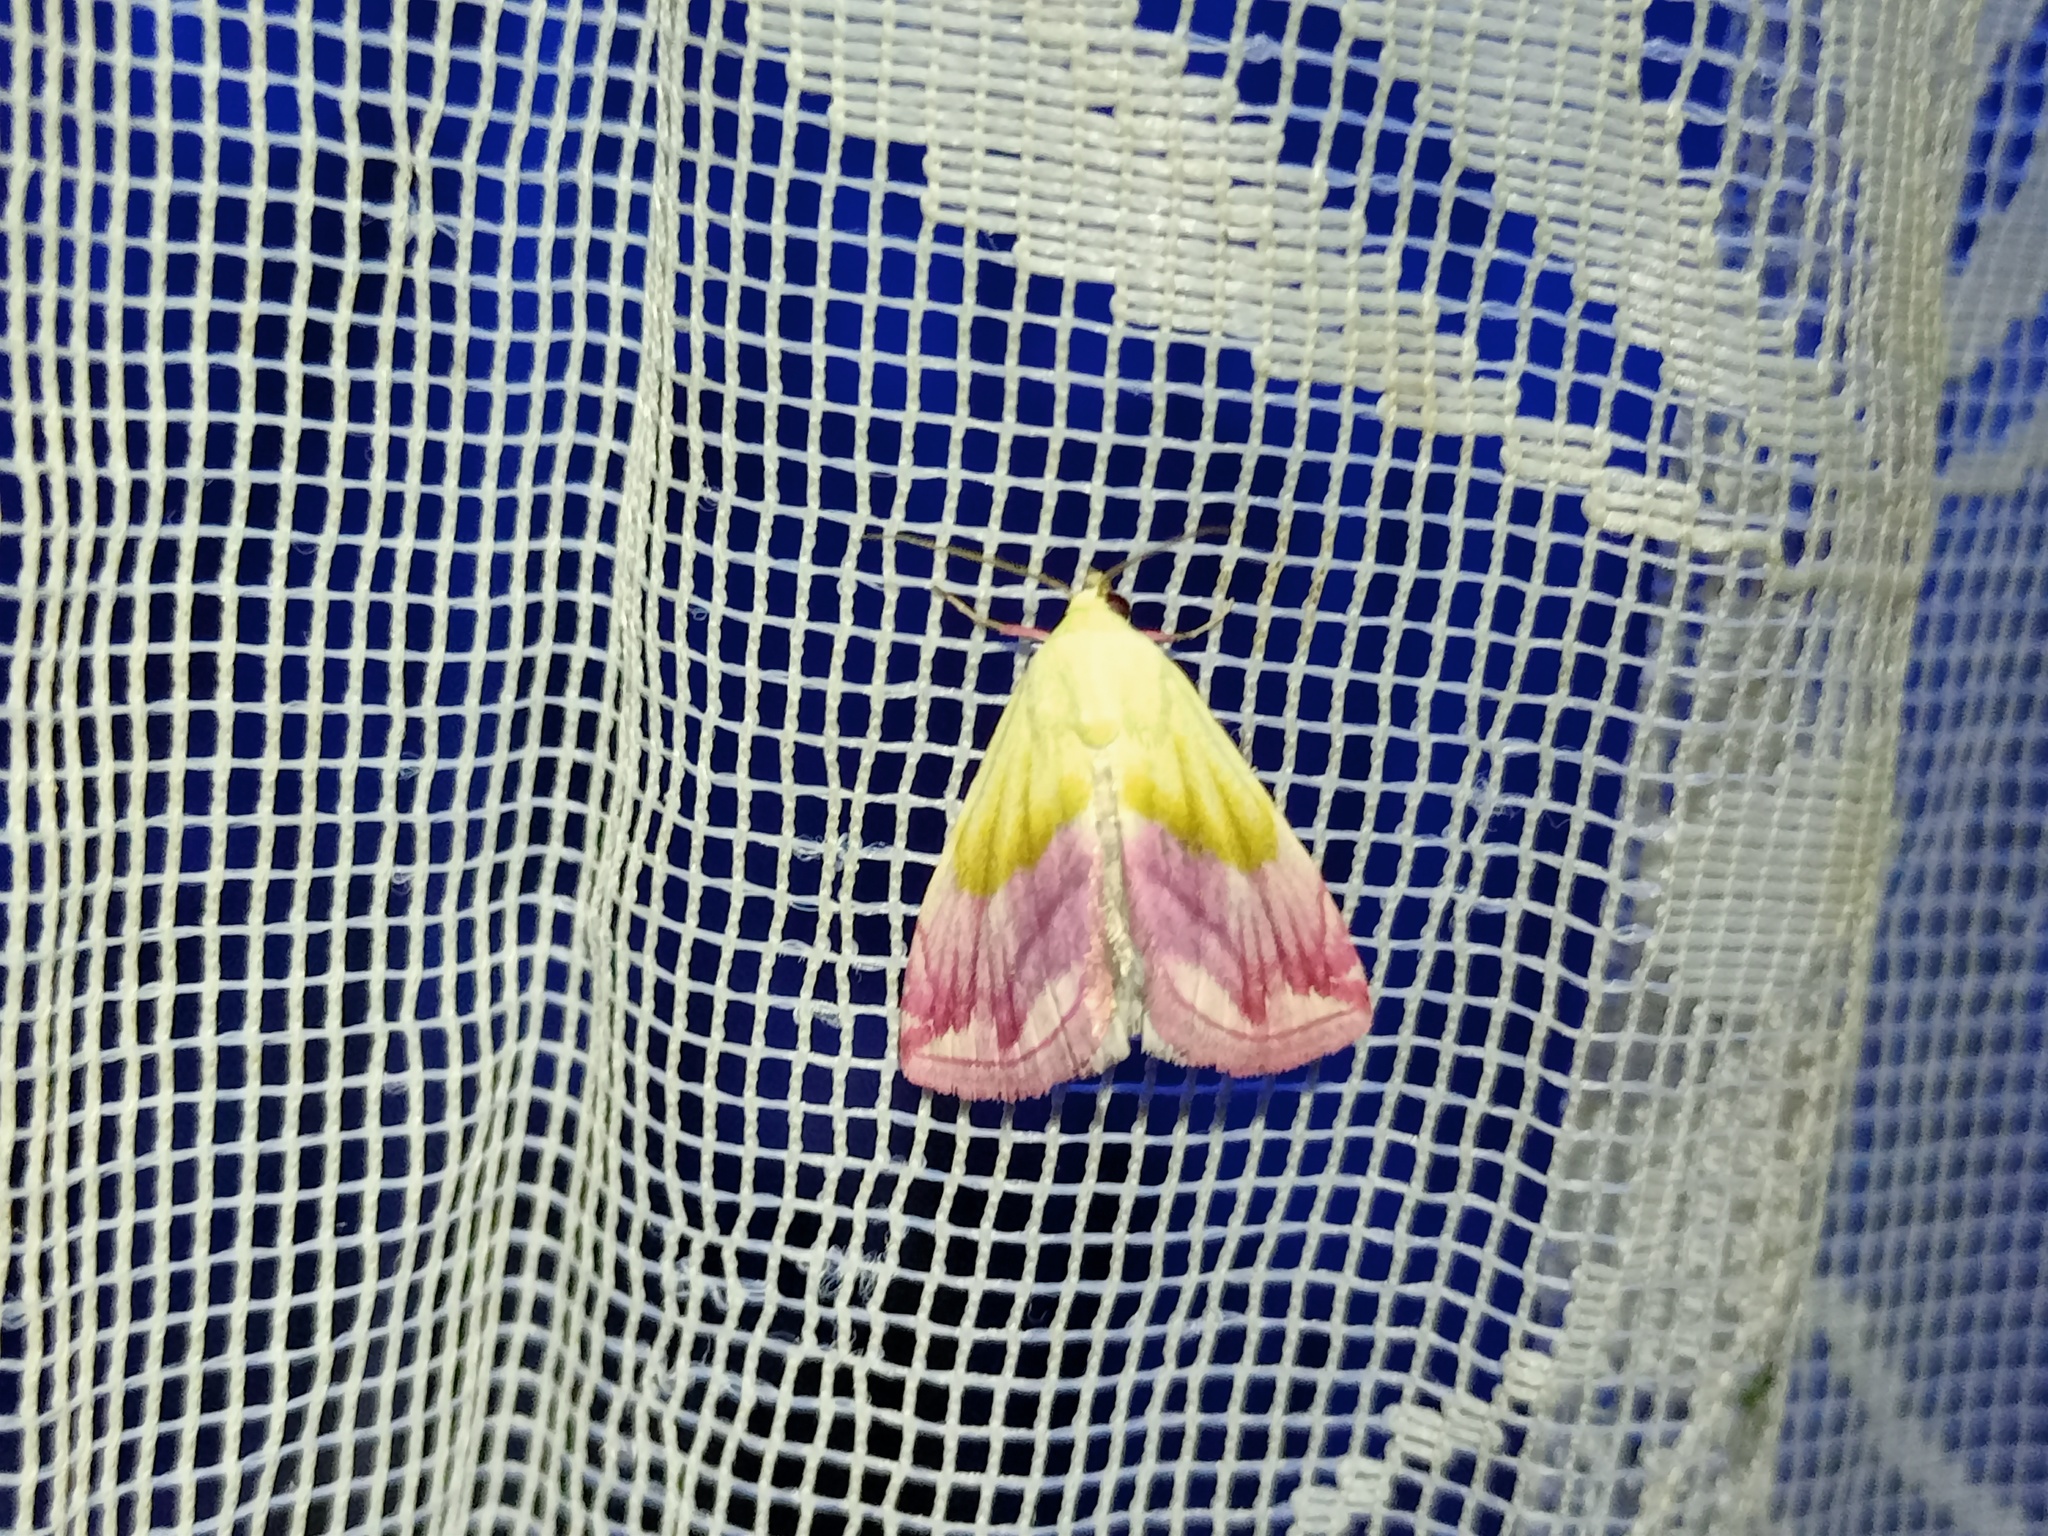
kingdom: Animalia
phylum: Arthropoda
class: Insecta
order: Lepidoptera
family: Noctuidae
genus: Eublemma
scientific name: Eublemma purpurina
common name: Beautiful marbled
